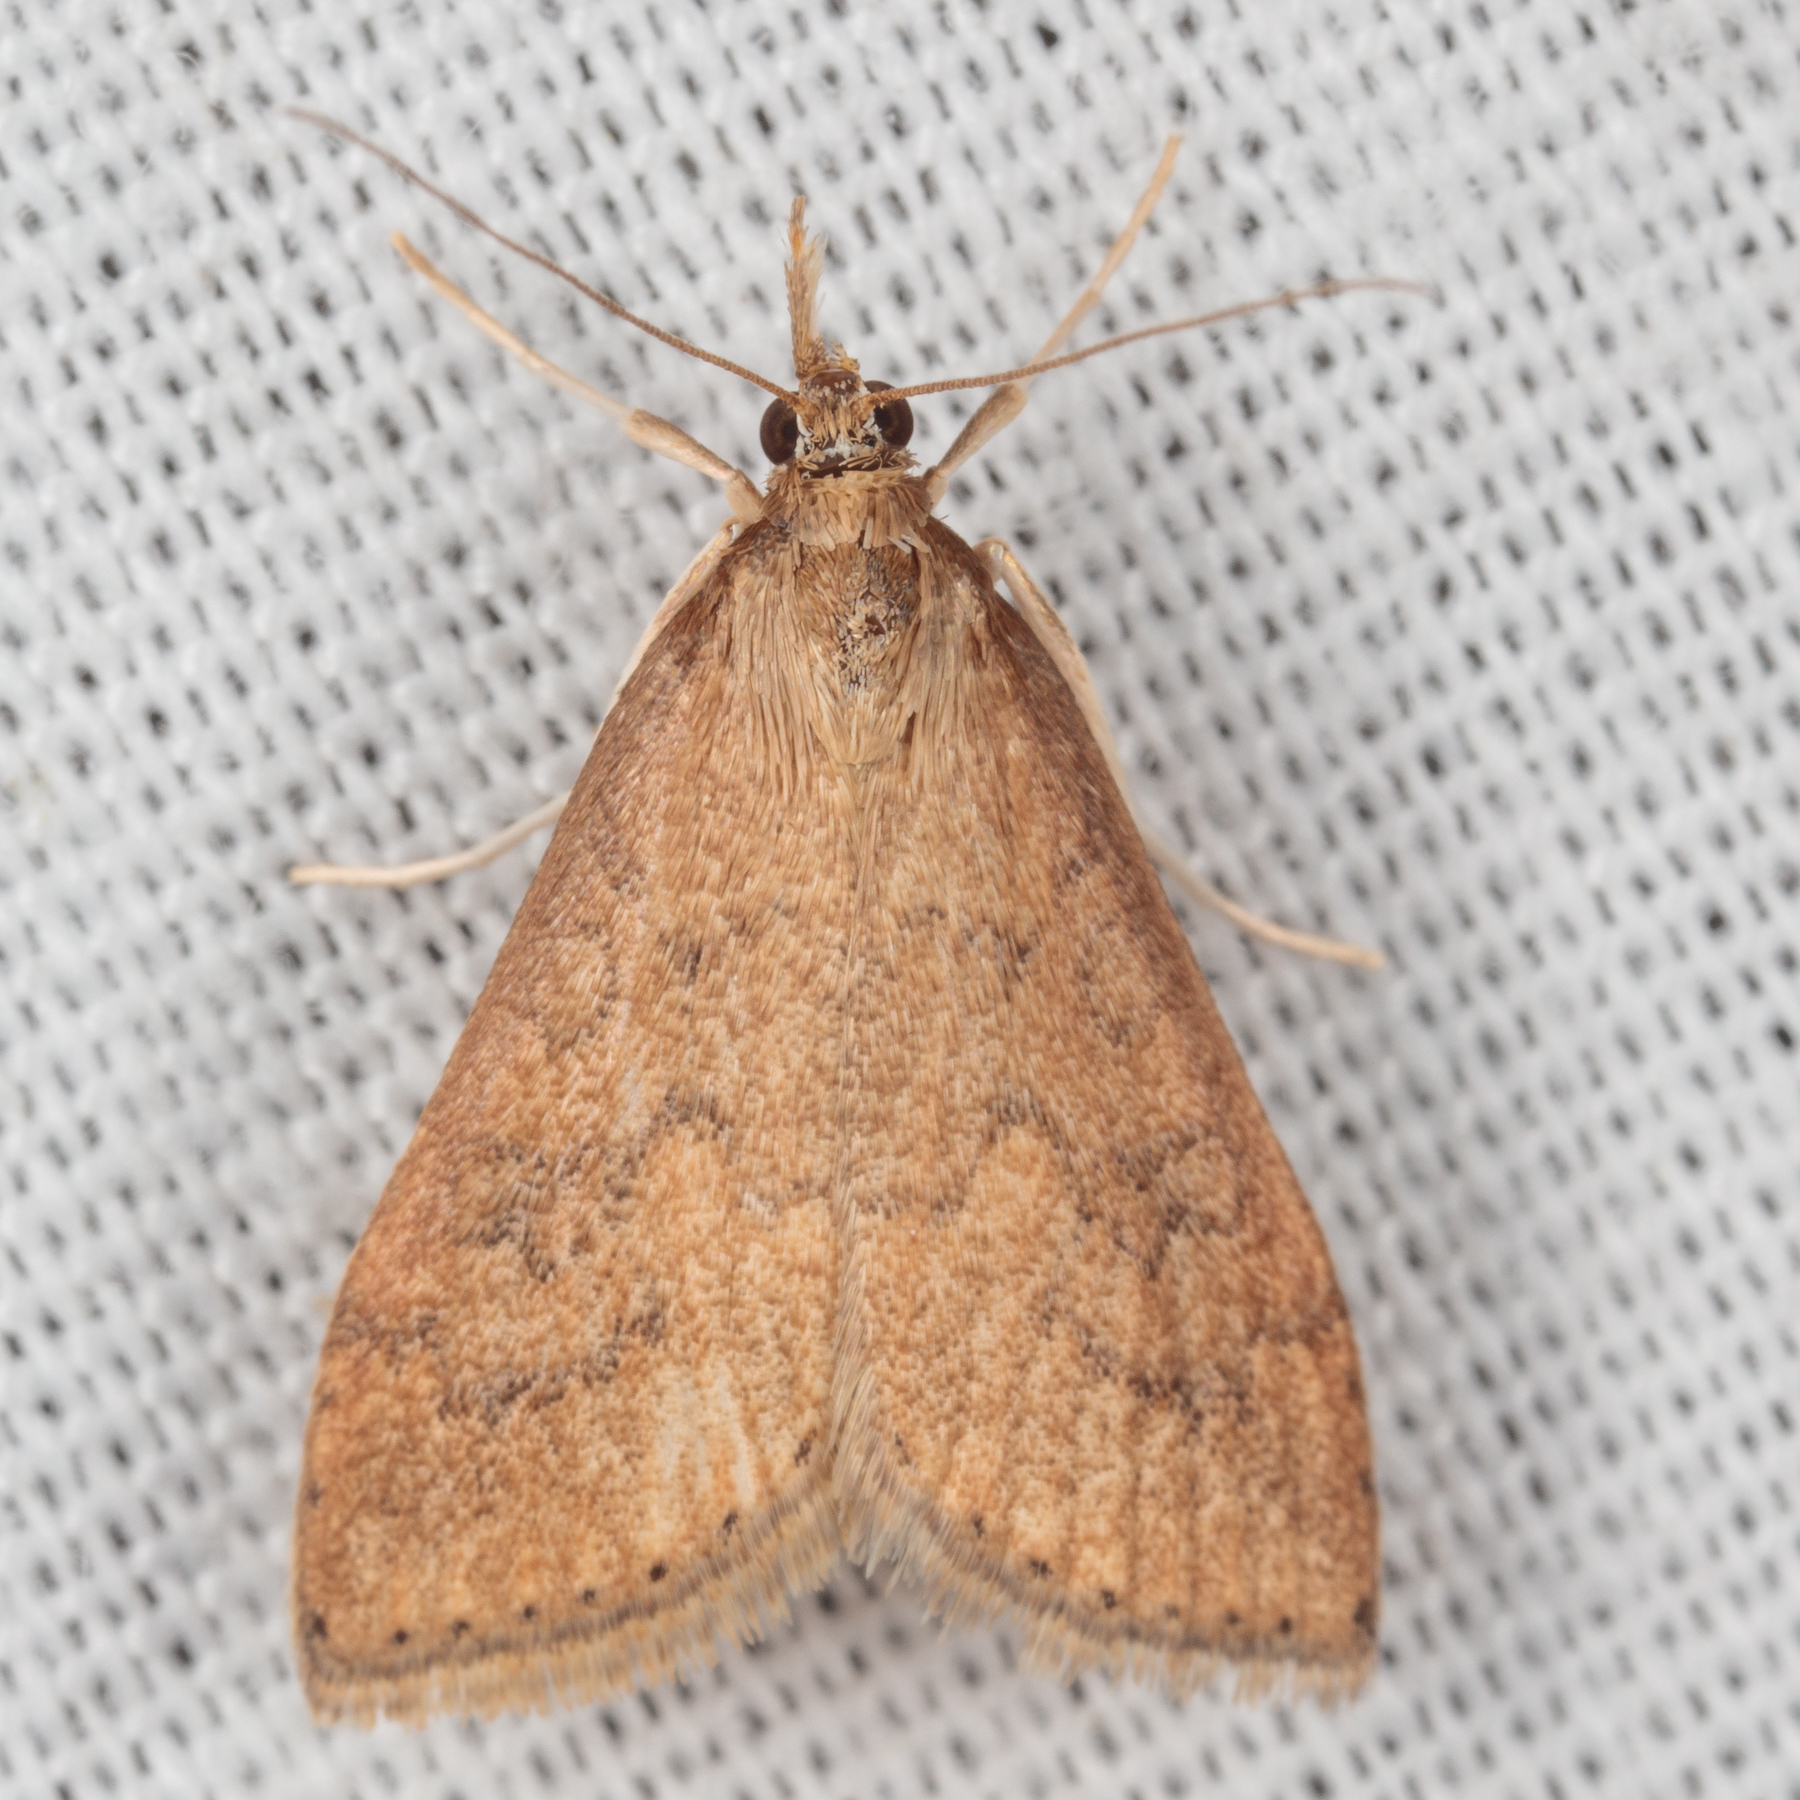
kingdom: Animalia
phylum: Arthropoda
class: Insecta
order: Lepidoptera
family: Crambidae
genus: Udea
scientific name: Udea rubigalis
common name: Celery leaftier moth
